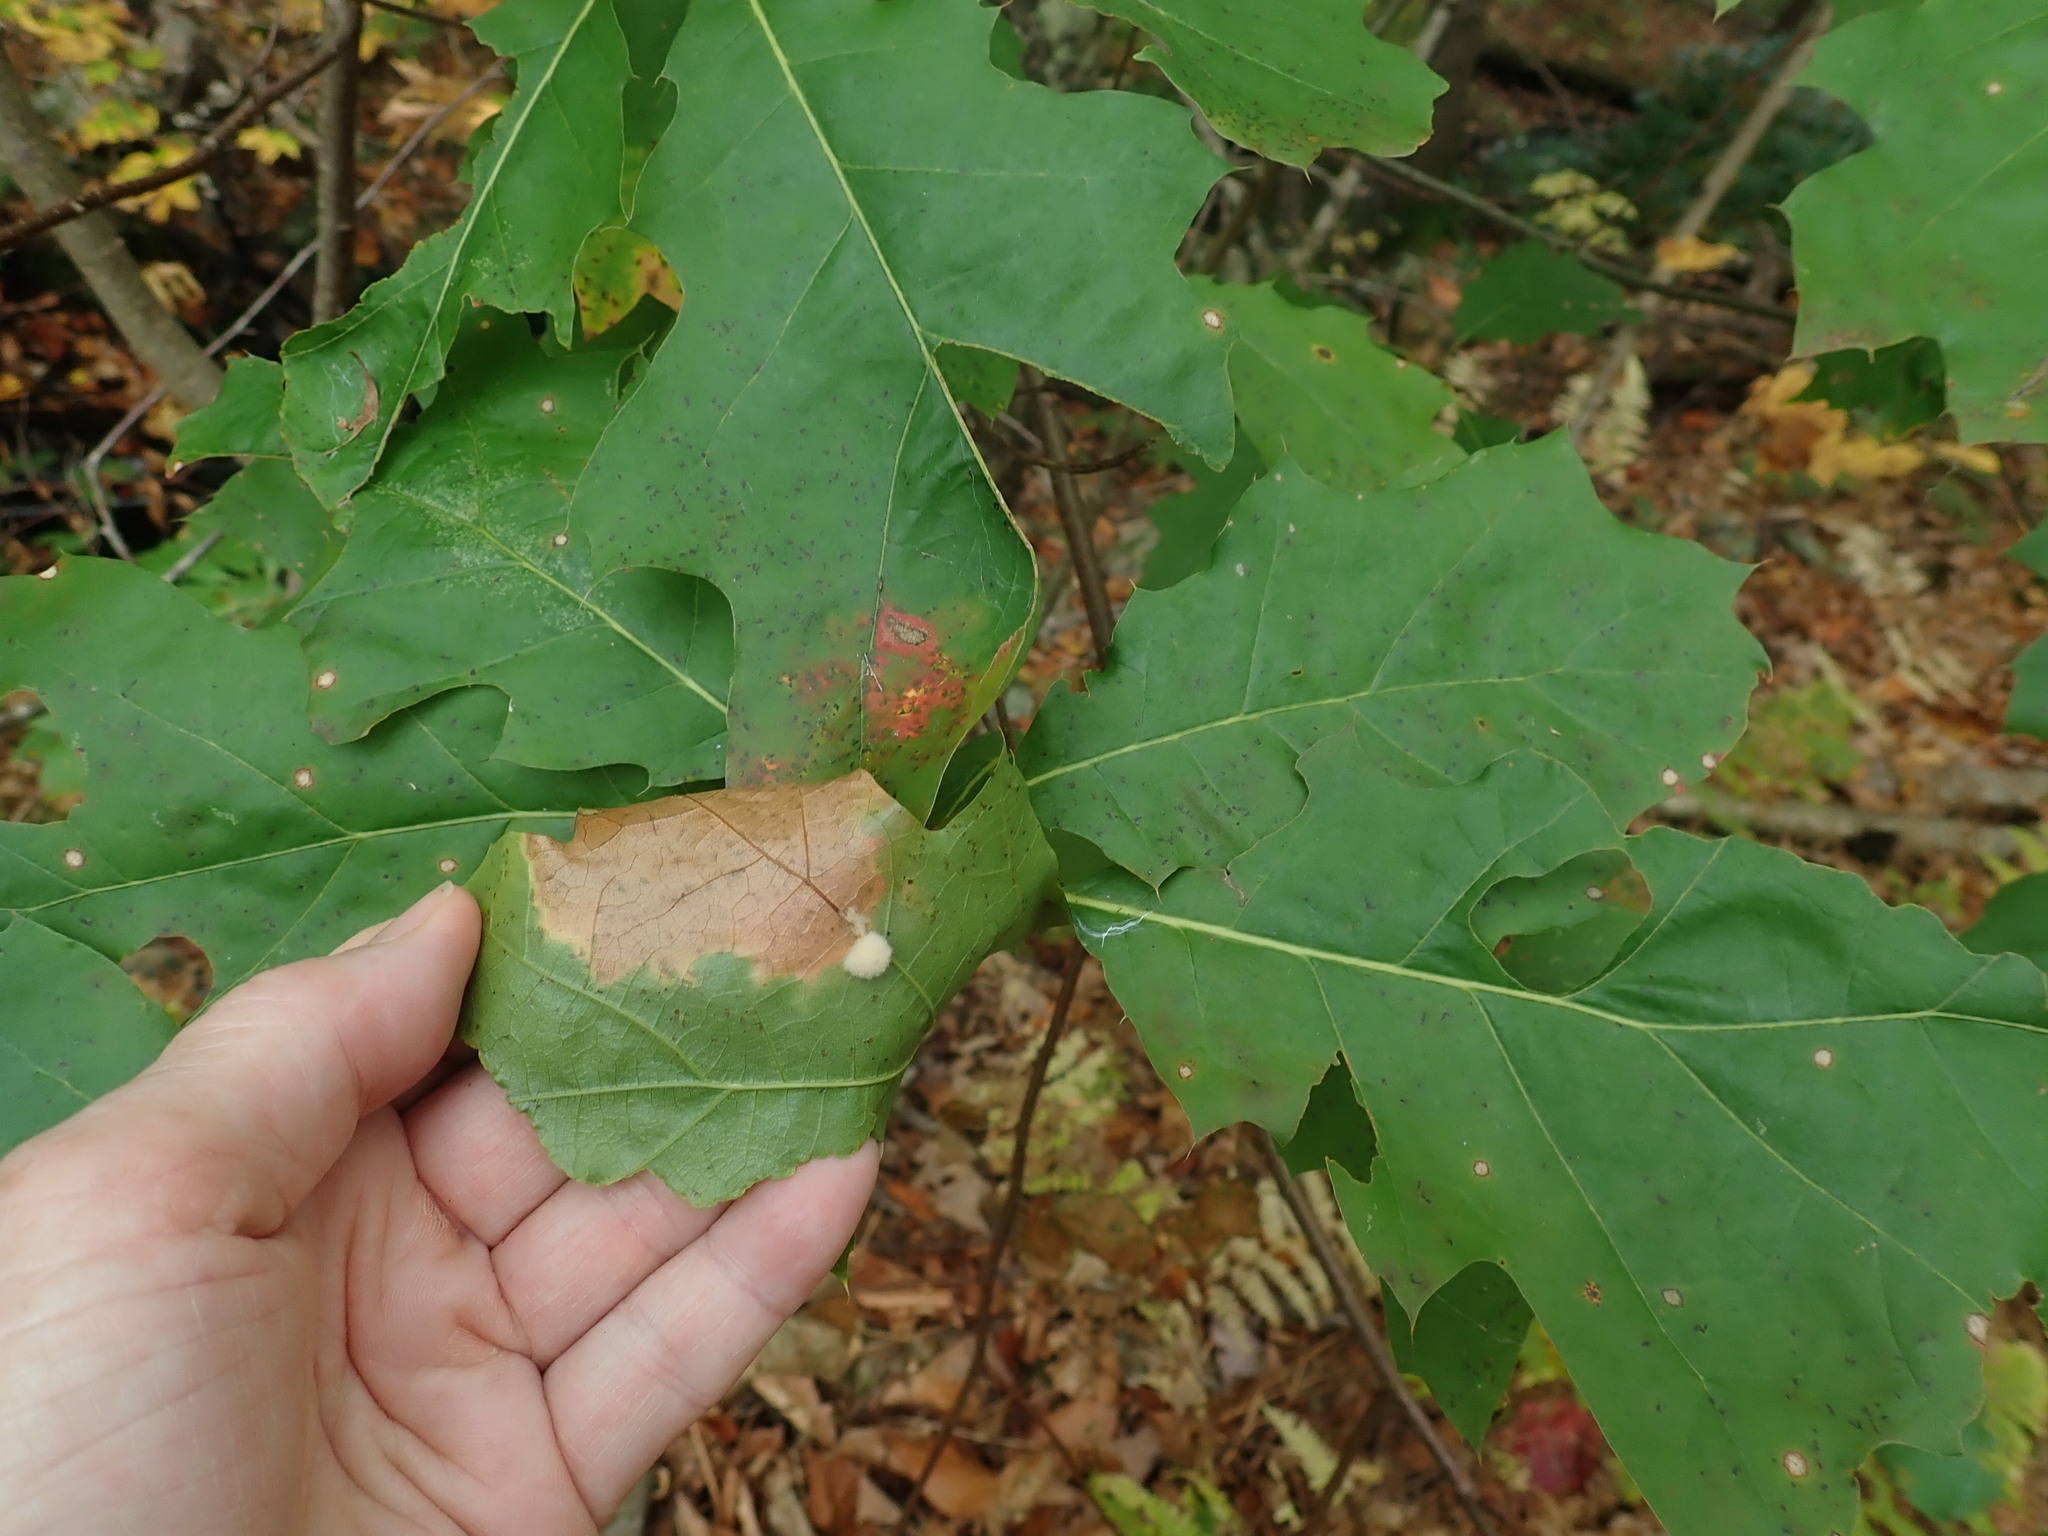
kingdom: Animalia
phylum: Arthropoda
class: Insecta
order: Hymenoptera
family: Cynipidae
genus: Callirhytis
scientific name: Callirhytis
